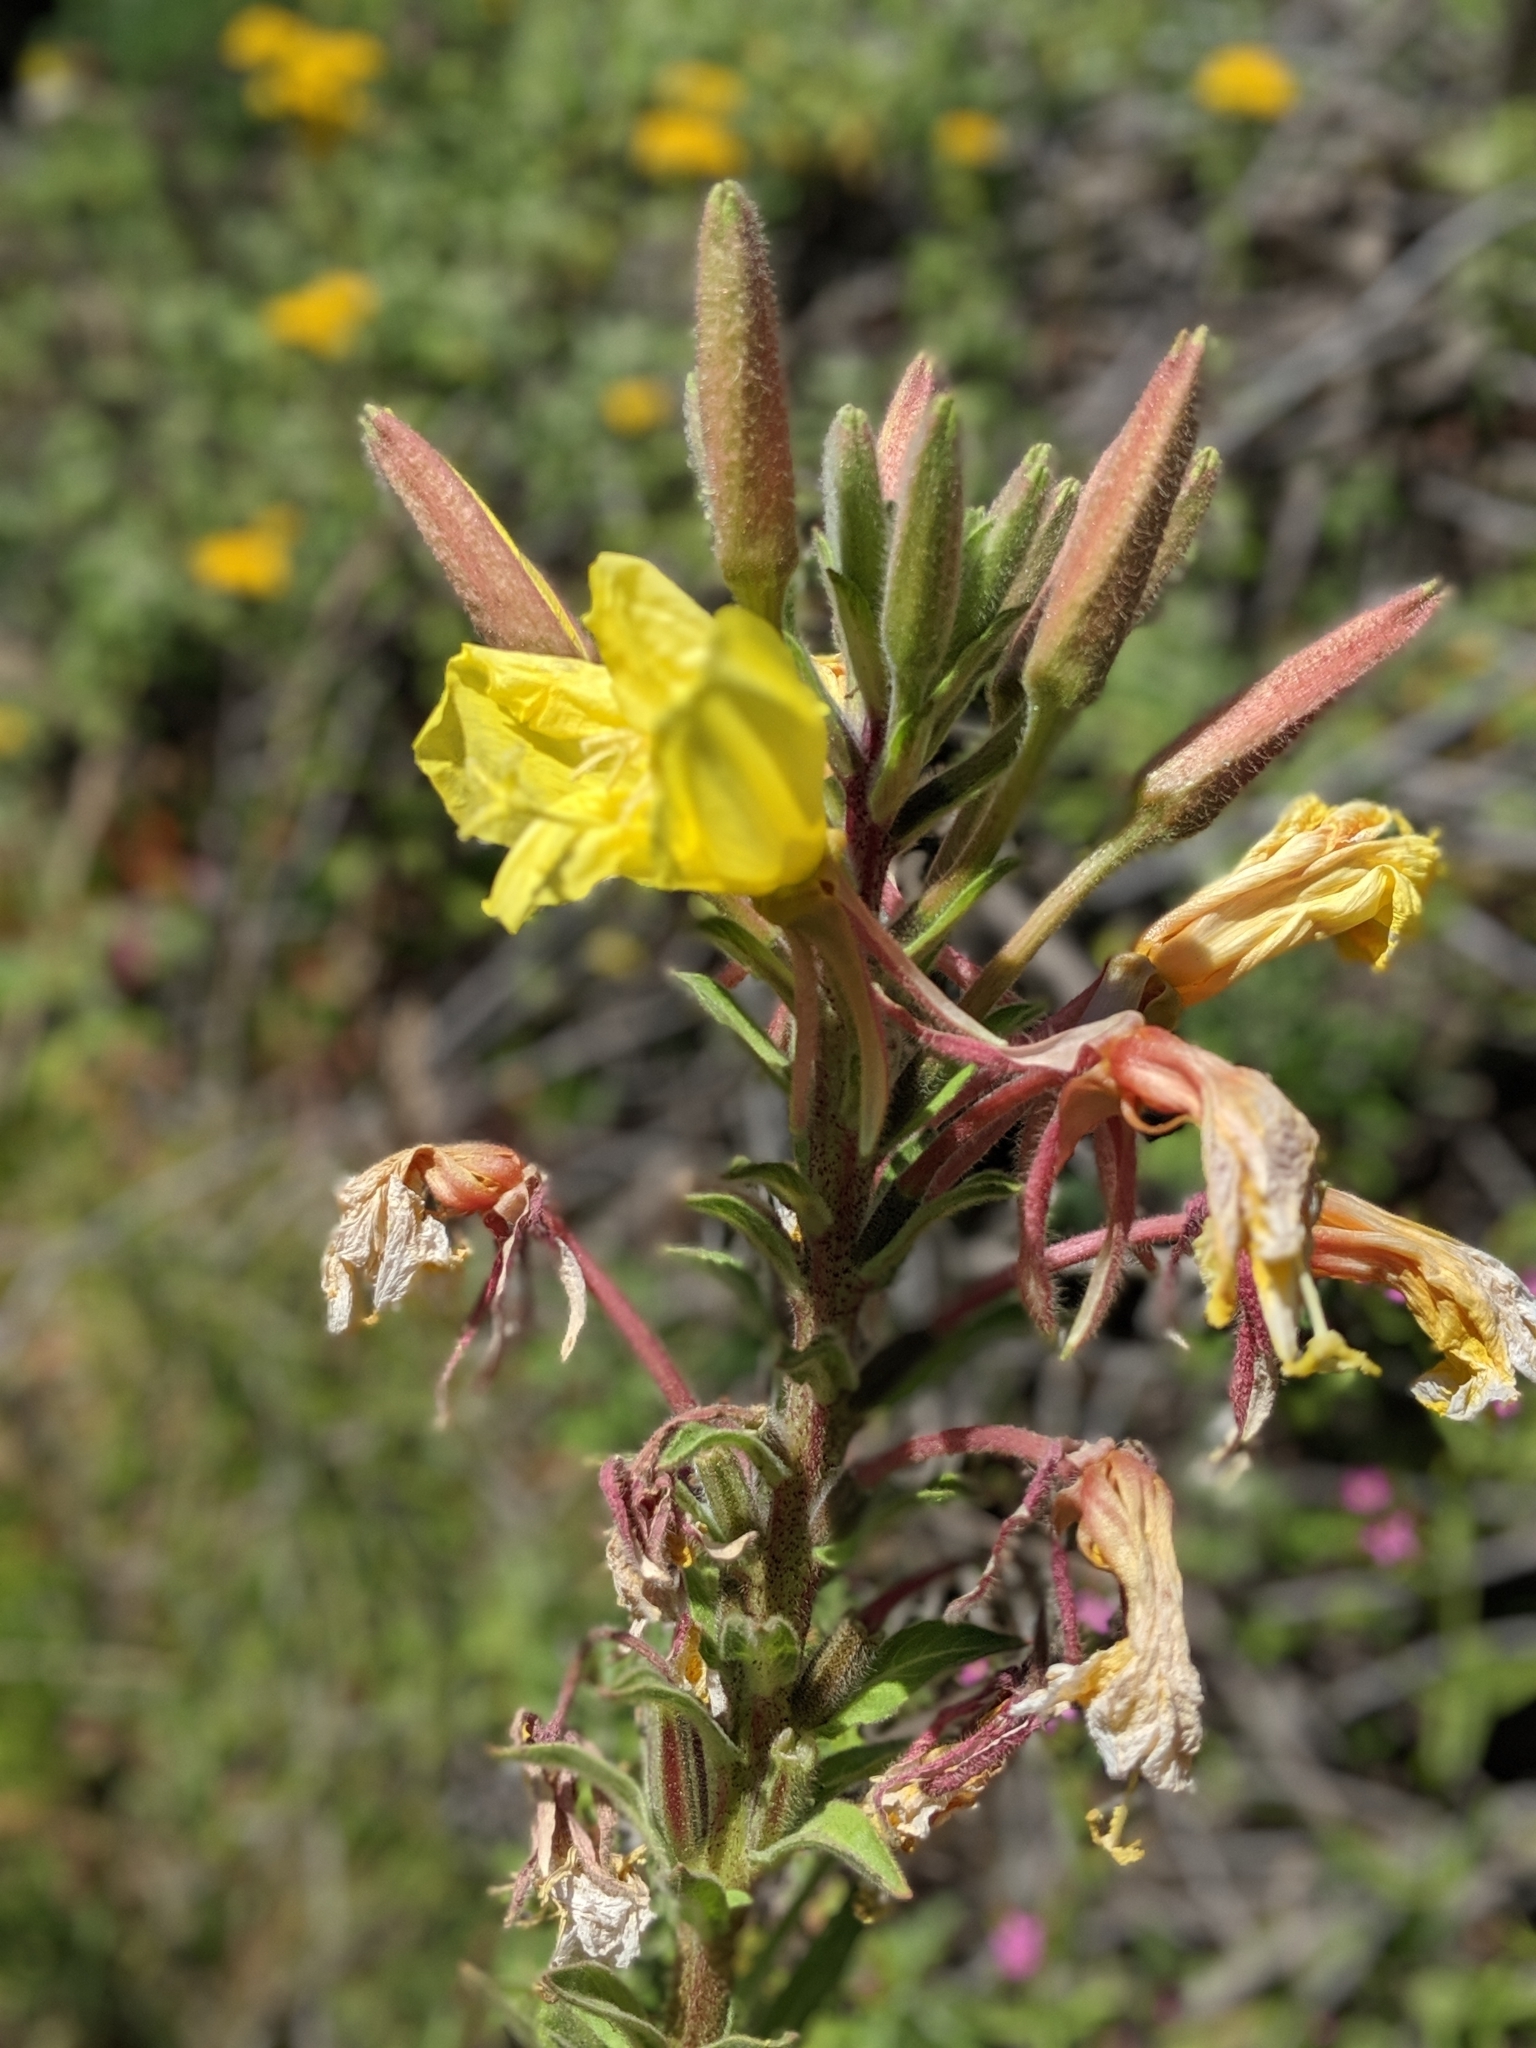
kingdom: Plantae
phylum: Tracheophyta
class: Magnoliopsida
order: Myrtales
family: Onagraceae
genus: Oenothera
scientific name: Oenothera elata
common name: Hooker's evening-primrose
